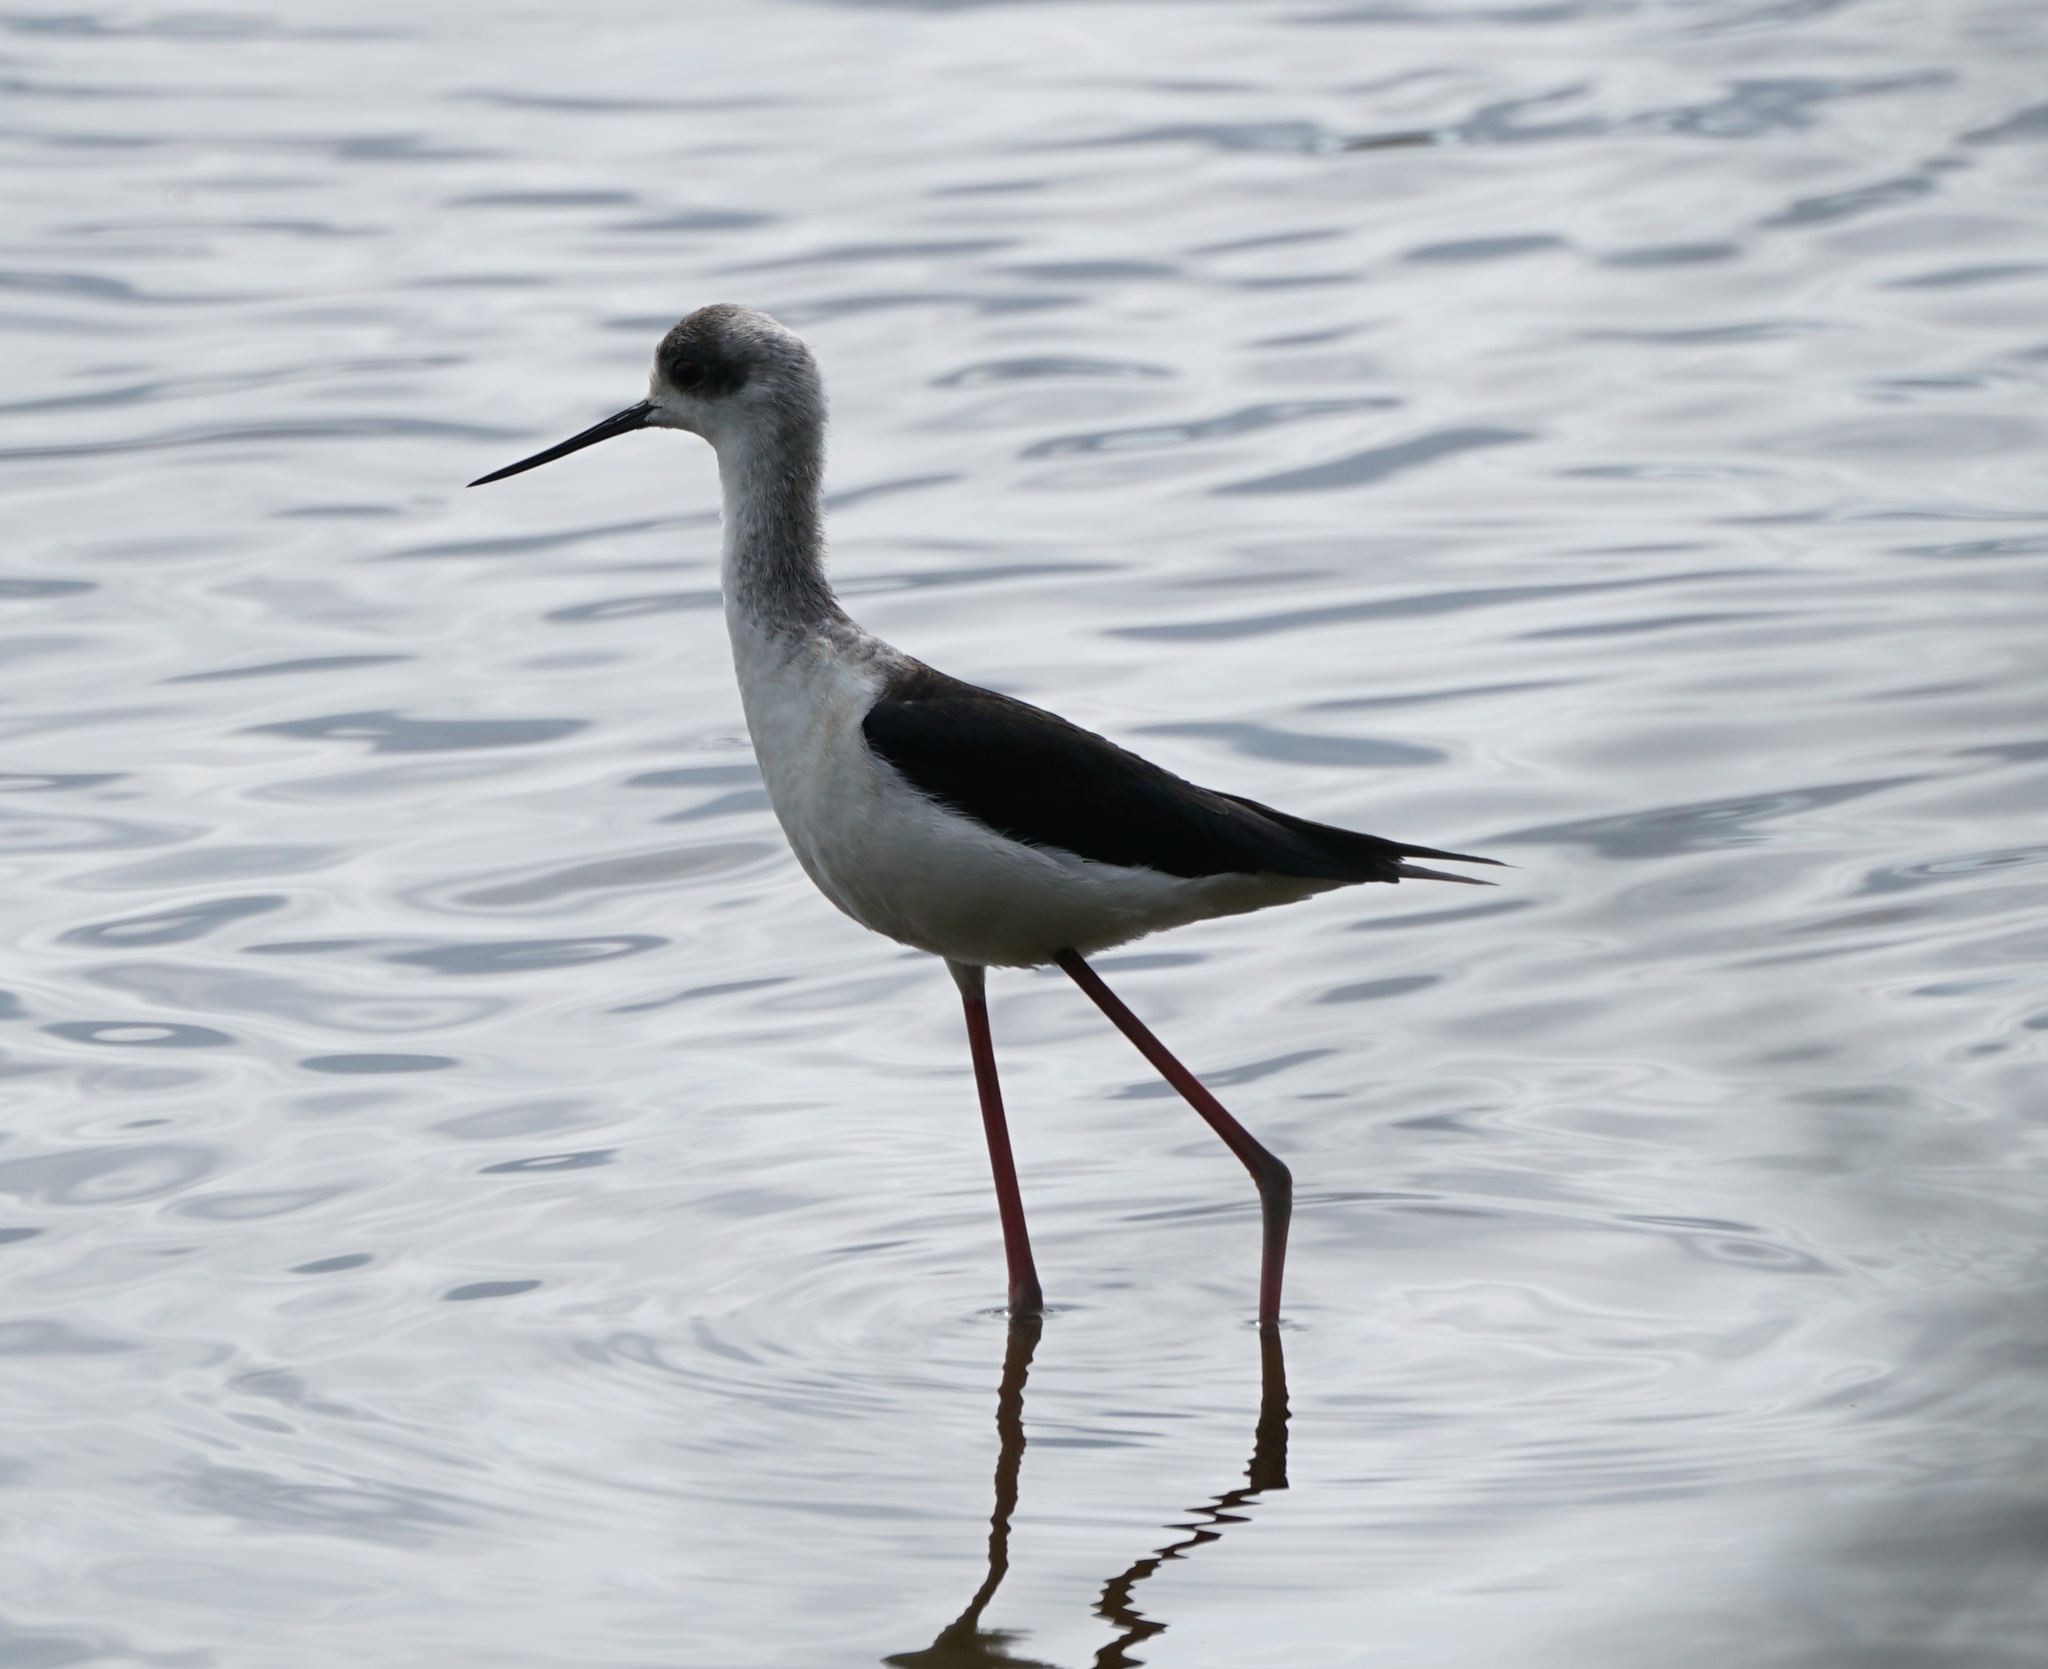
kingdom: Animalia
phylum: Chordata
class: Aves
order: Charadriiformes
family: Recurvirostridae
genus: Himantopus
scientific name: Himantopus leucocephalus
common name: White-headed stilt
